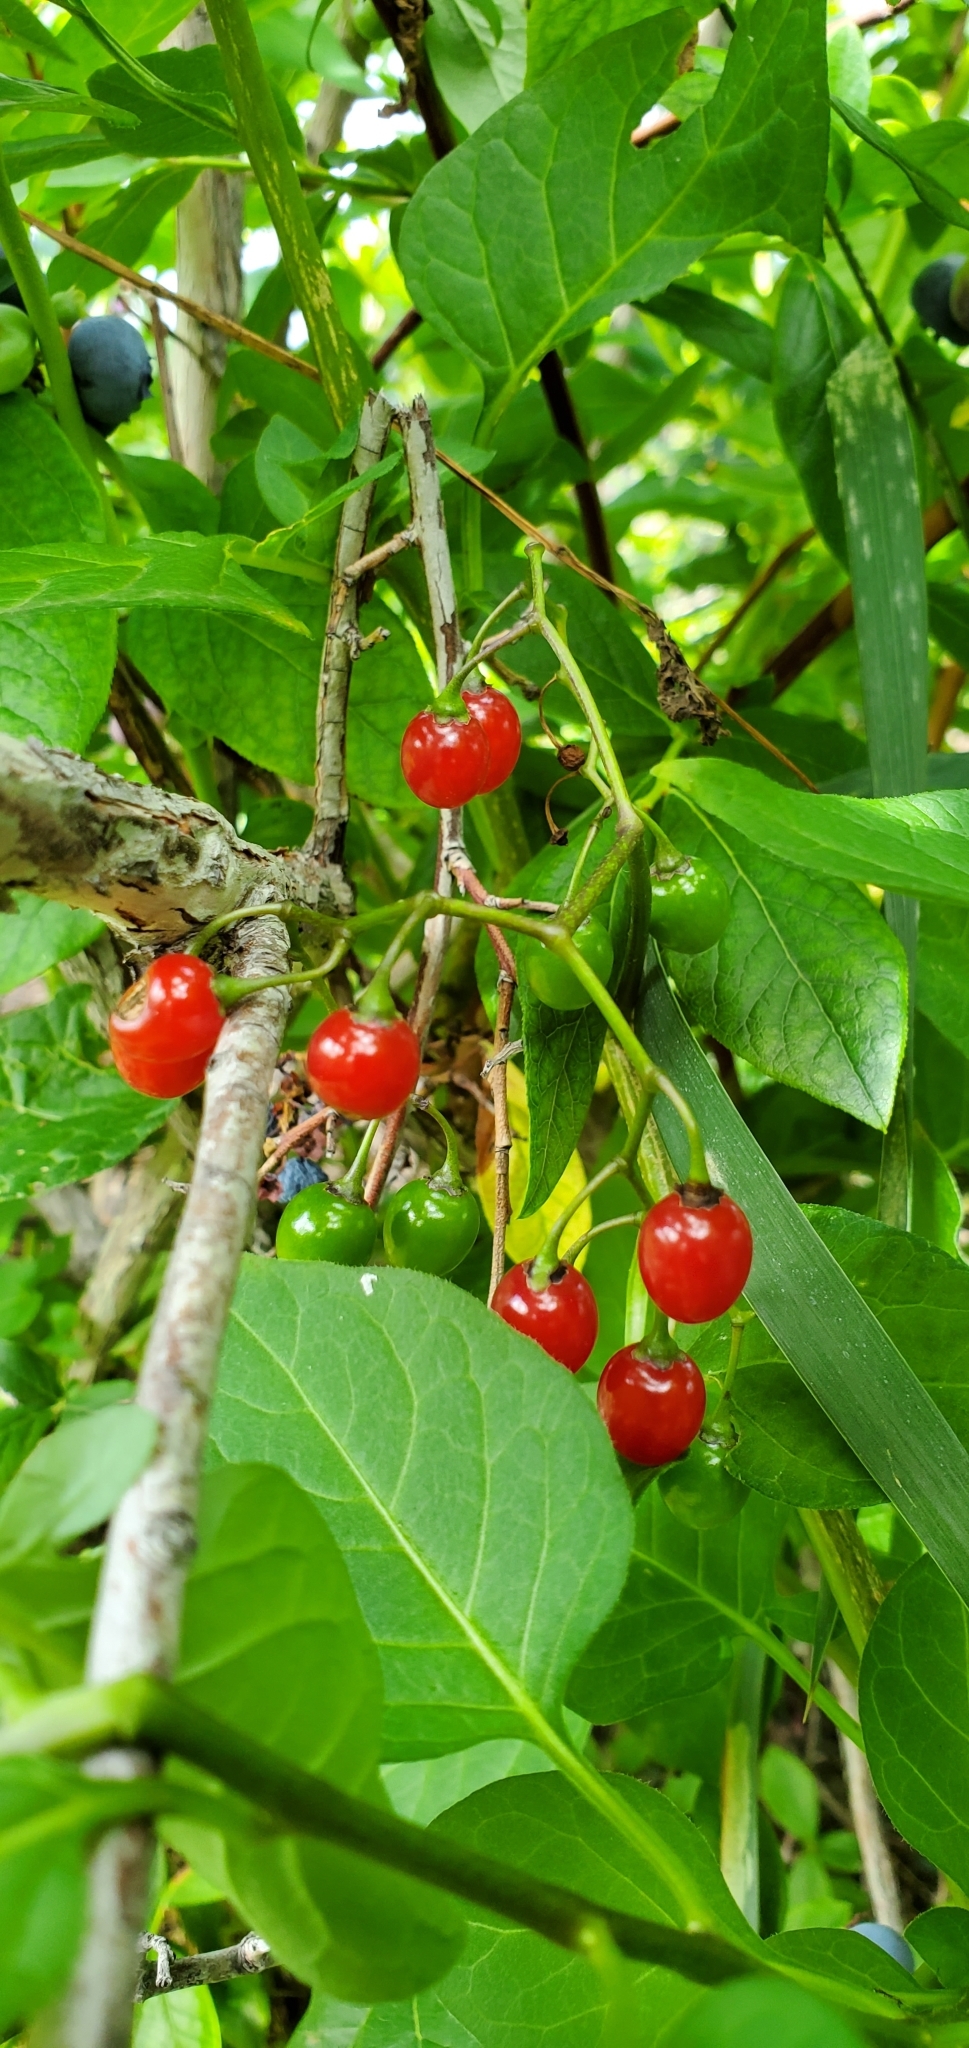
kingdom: Plantae
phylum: Tracheophyta
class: Magnoliopsida
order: Solanales
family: Solanaceae
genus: Solanum
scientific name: Solanum dulcamara
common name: Climbing nightshade
